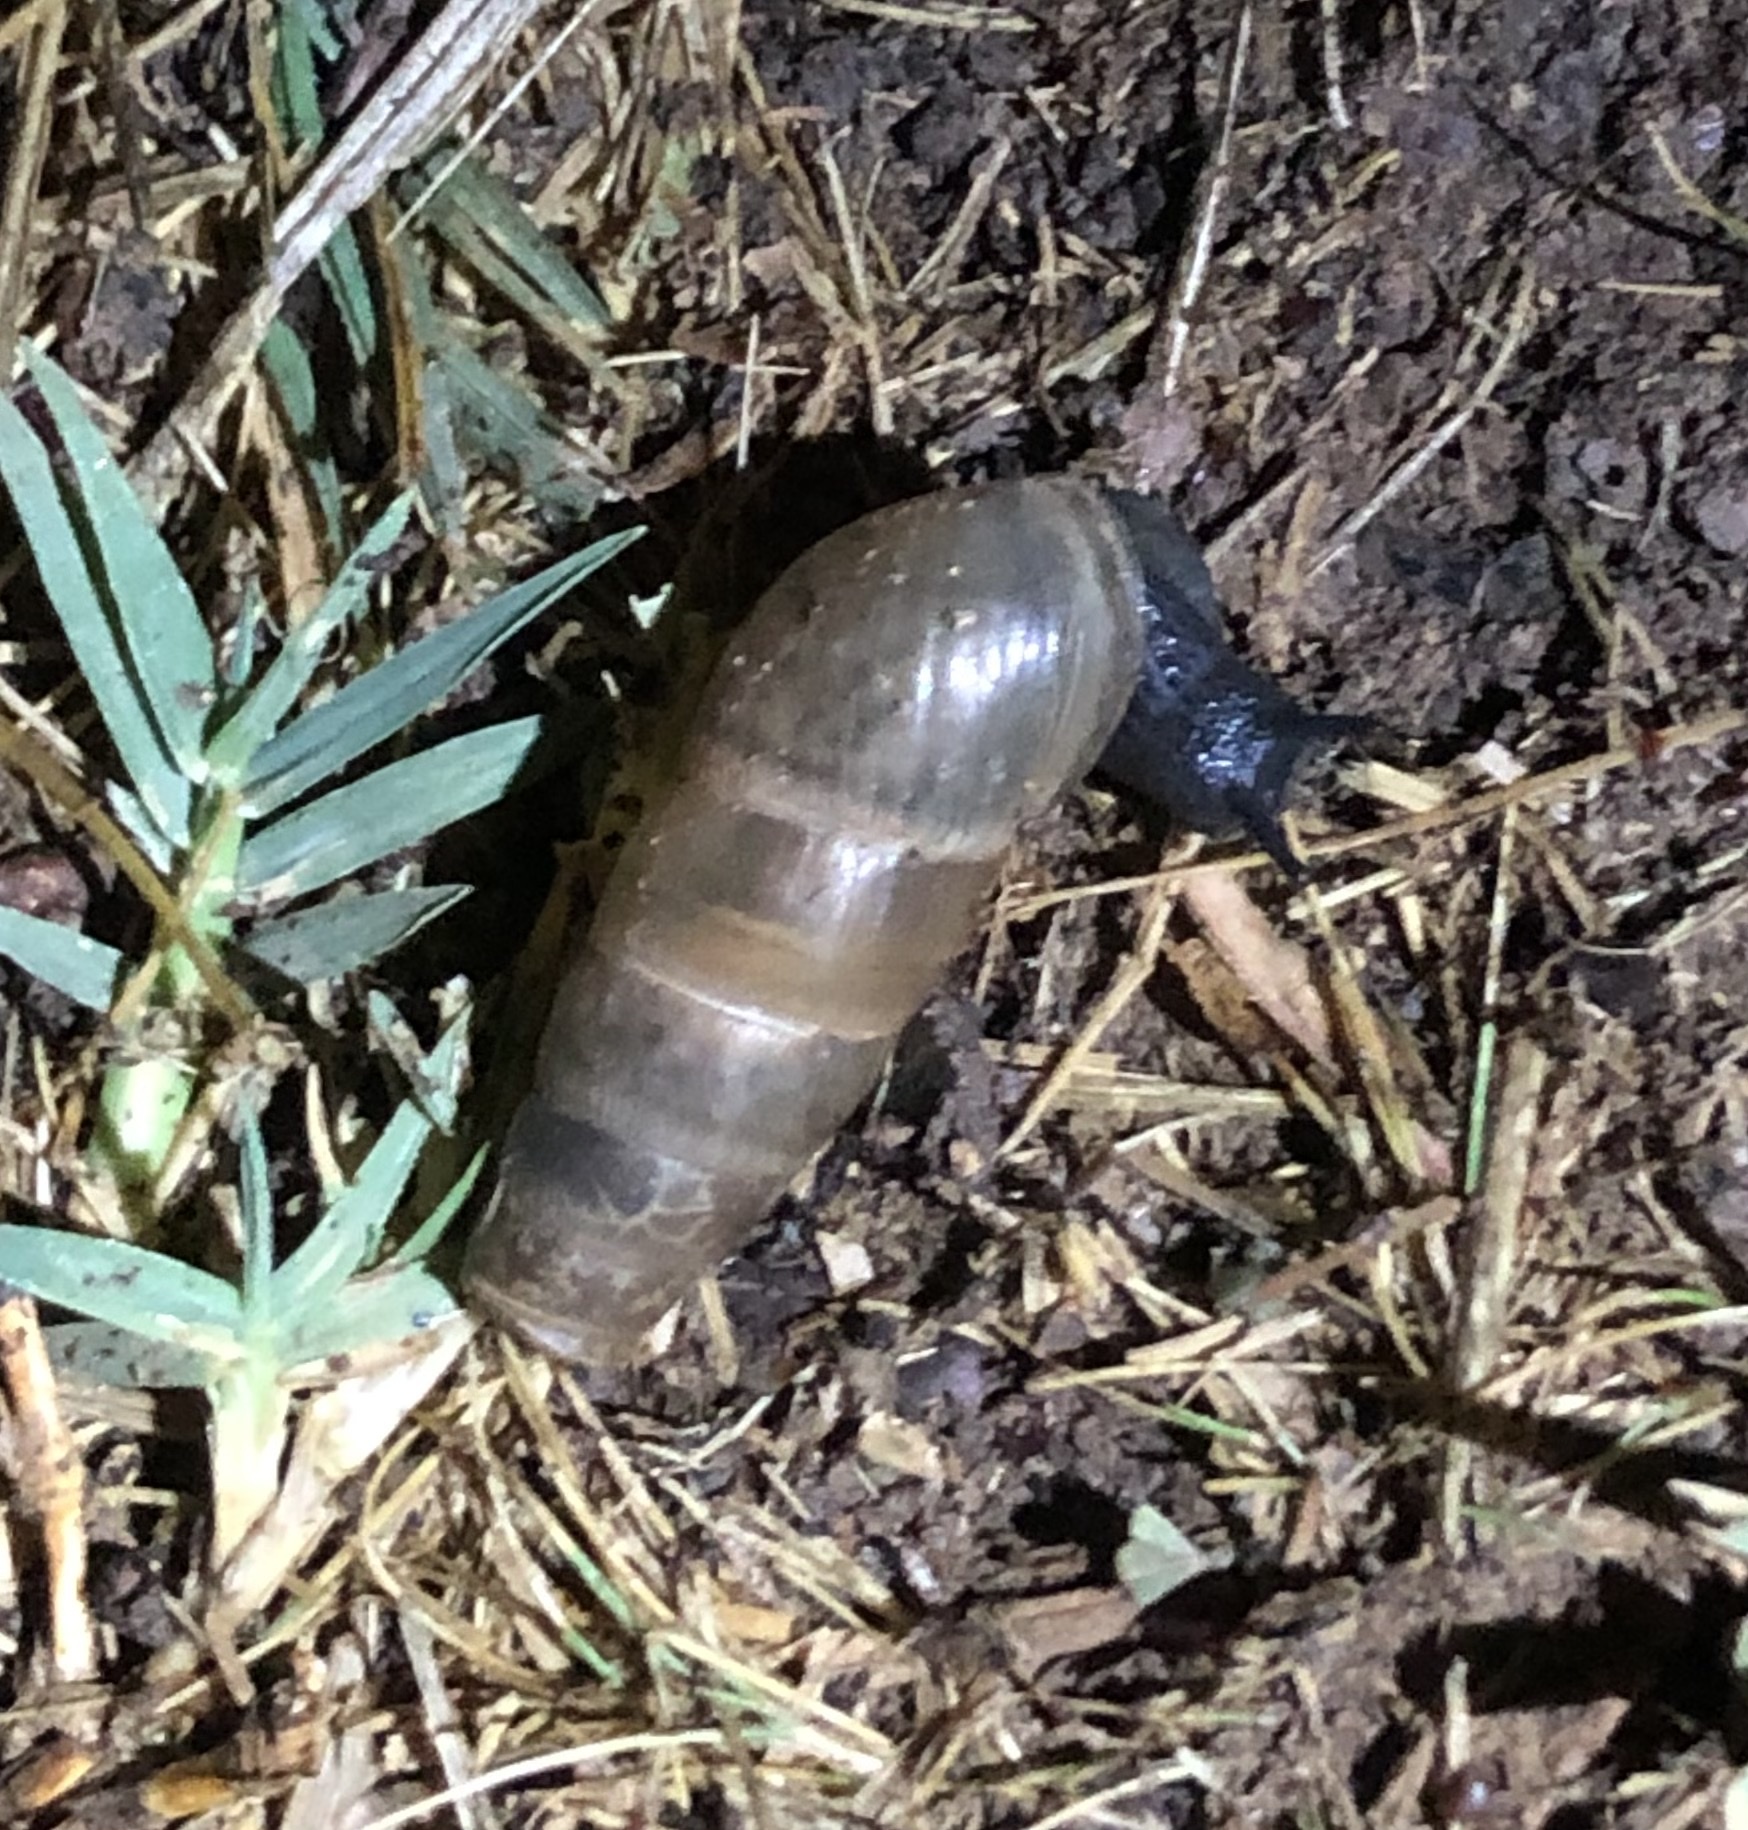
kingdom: Animalia
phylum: Mollusca
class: Gastropoda
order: Stylommatophora
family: Achatinidae
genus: Rumina
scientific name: Rumina decollata
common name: Decollate snail
